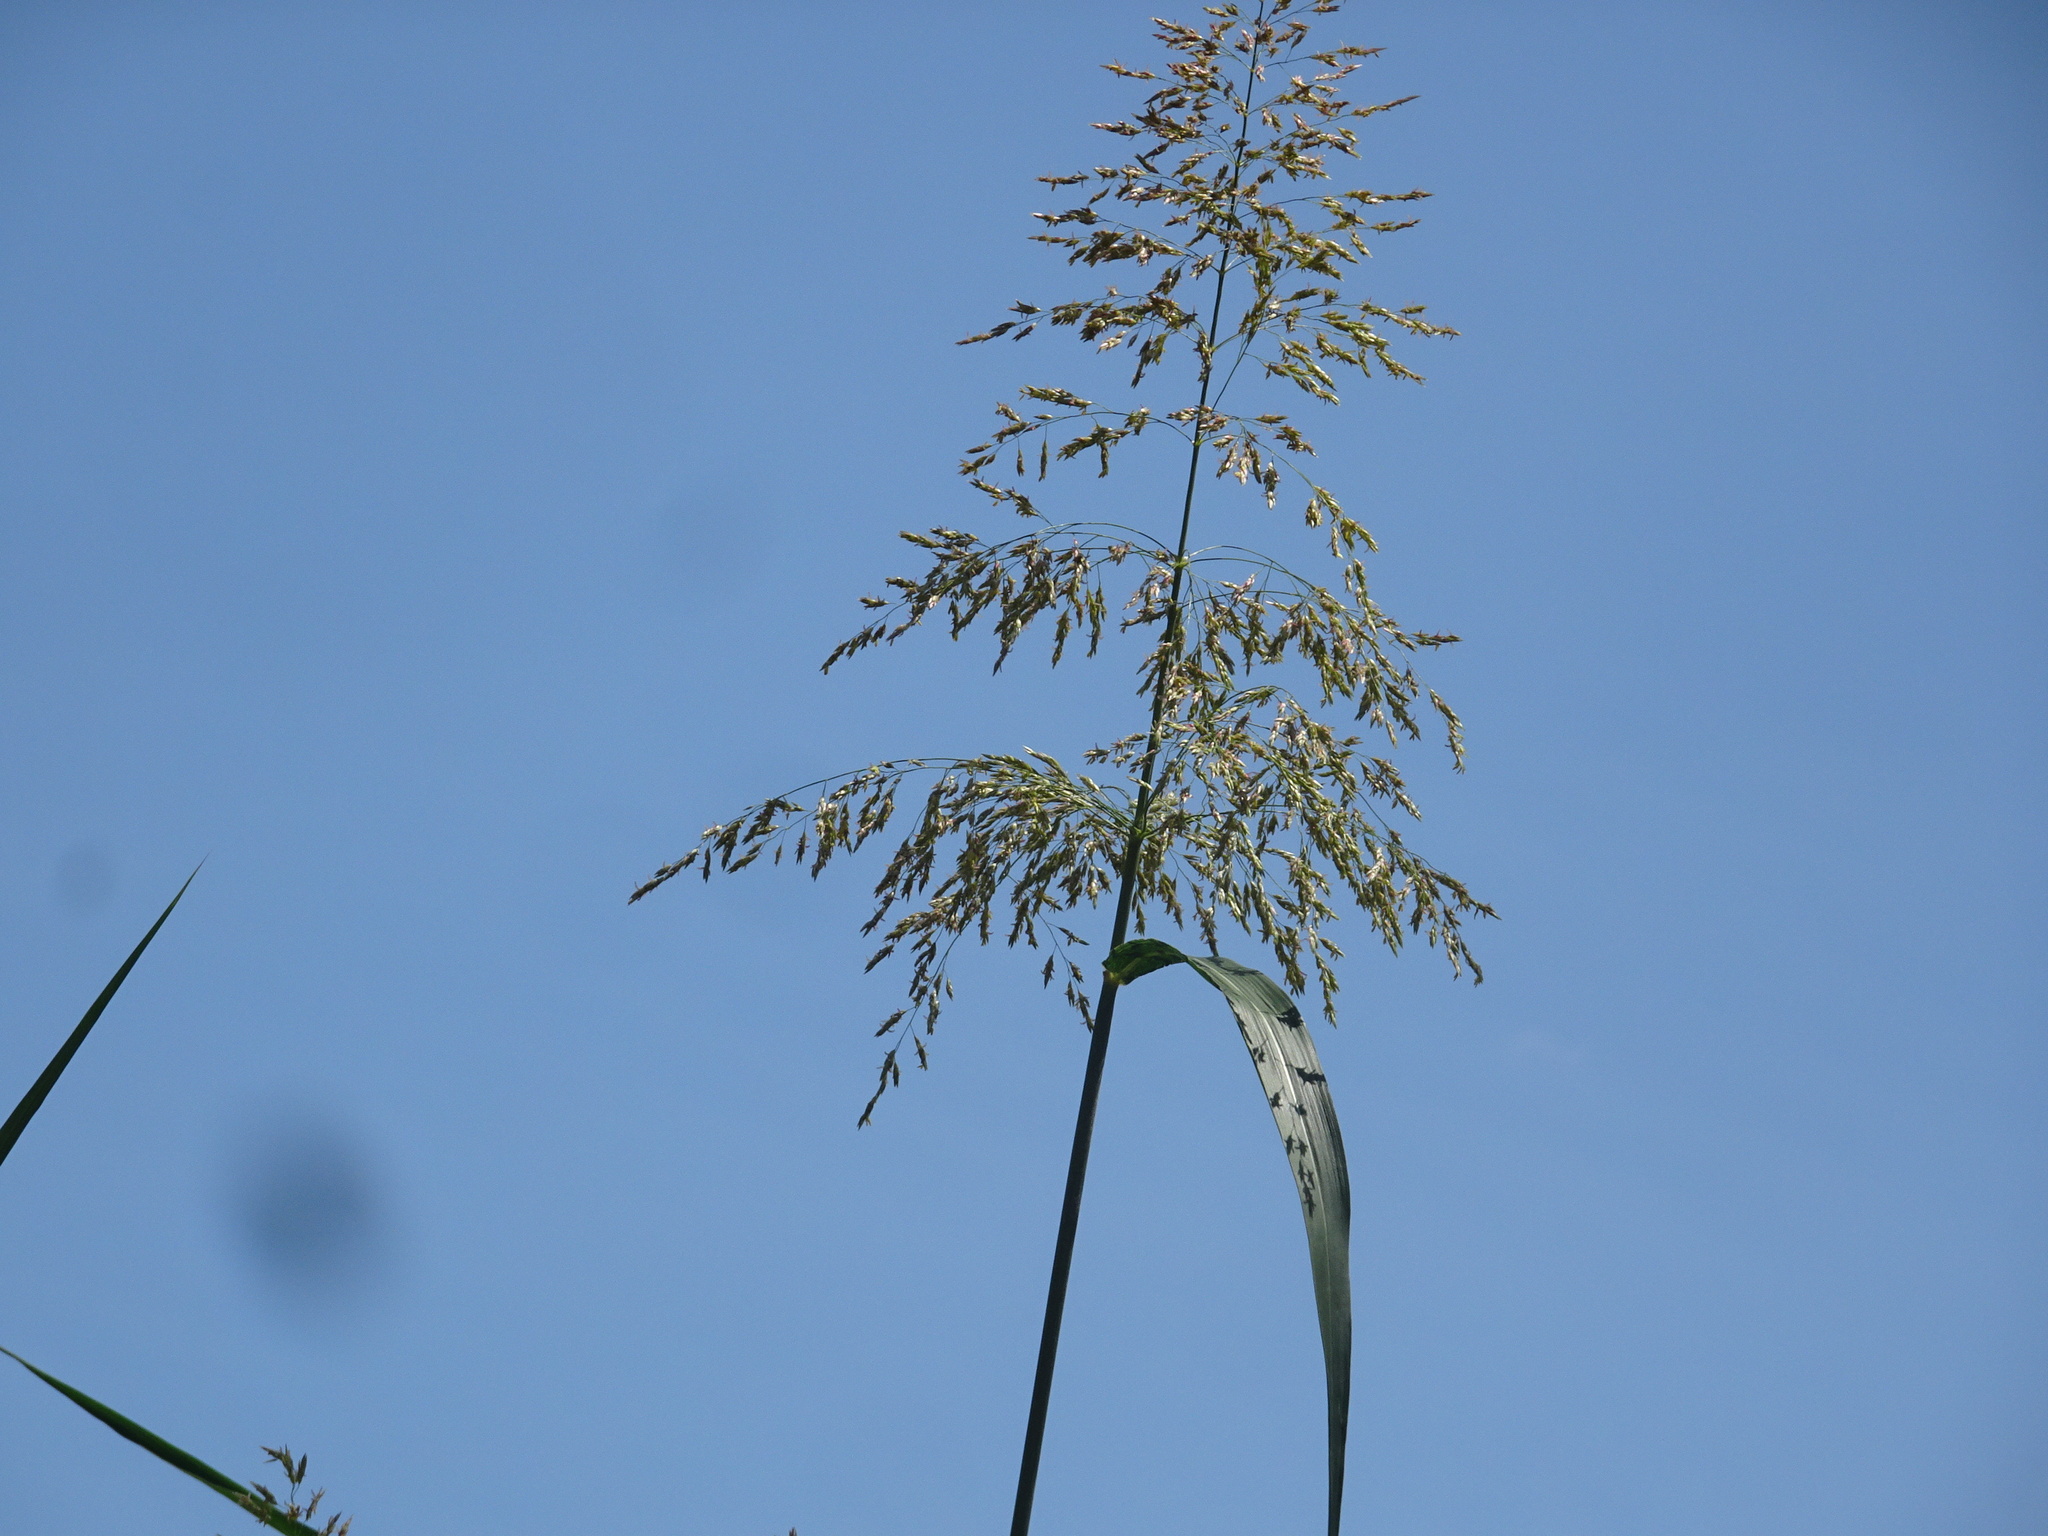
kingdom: Plantae
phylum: Tracheophyta
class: Liliopsida
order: Poales
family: Poaceae
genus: Sorghum
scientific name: Sorghum halepense
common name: Johnson-grass
